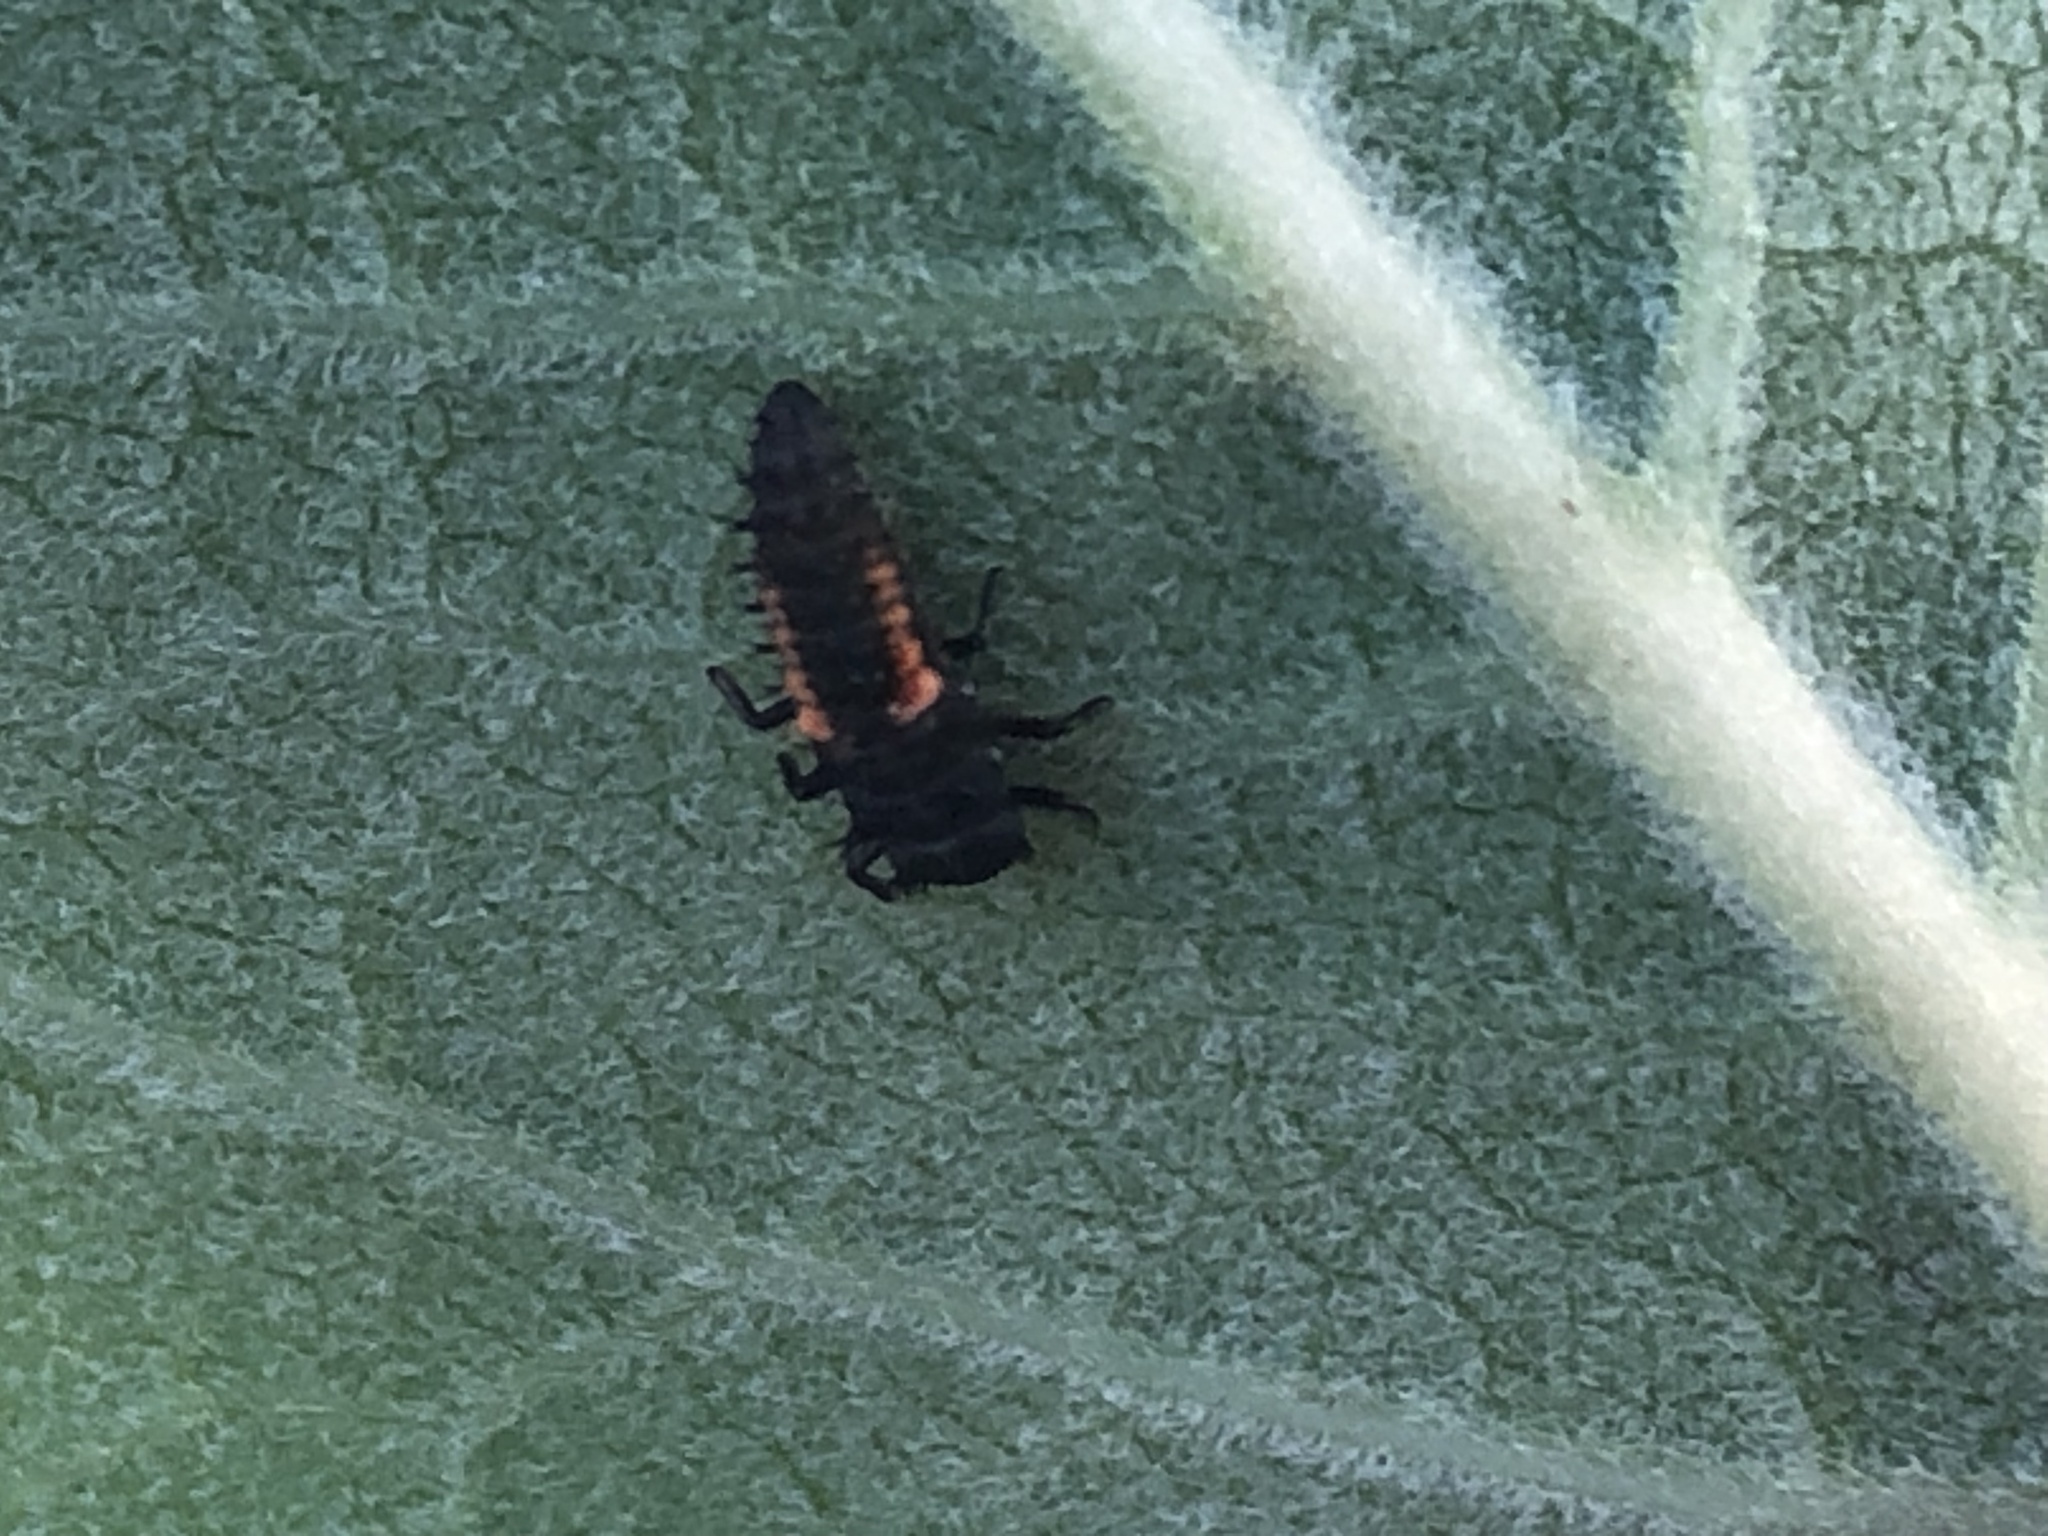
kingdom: Animalia
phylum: Arthropoda
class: Insecta
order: Coleoptera
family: Coccinellidae
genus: Harmonia
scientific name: Harmonia axyridis
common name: Harlequin ladybird
